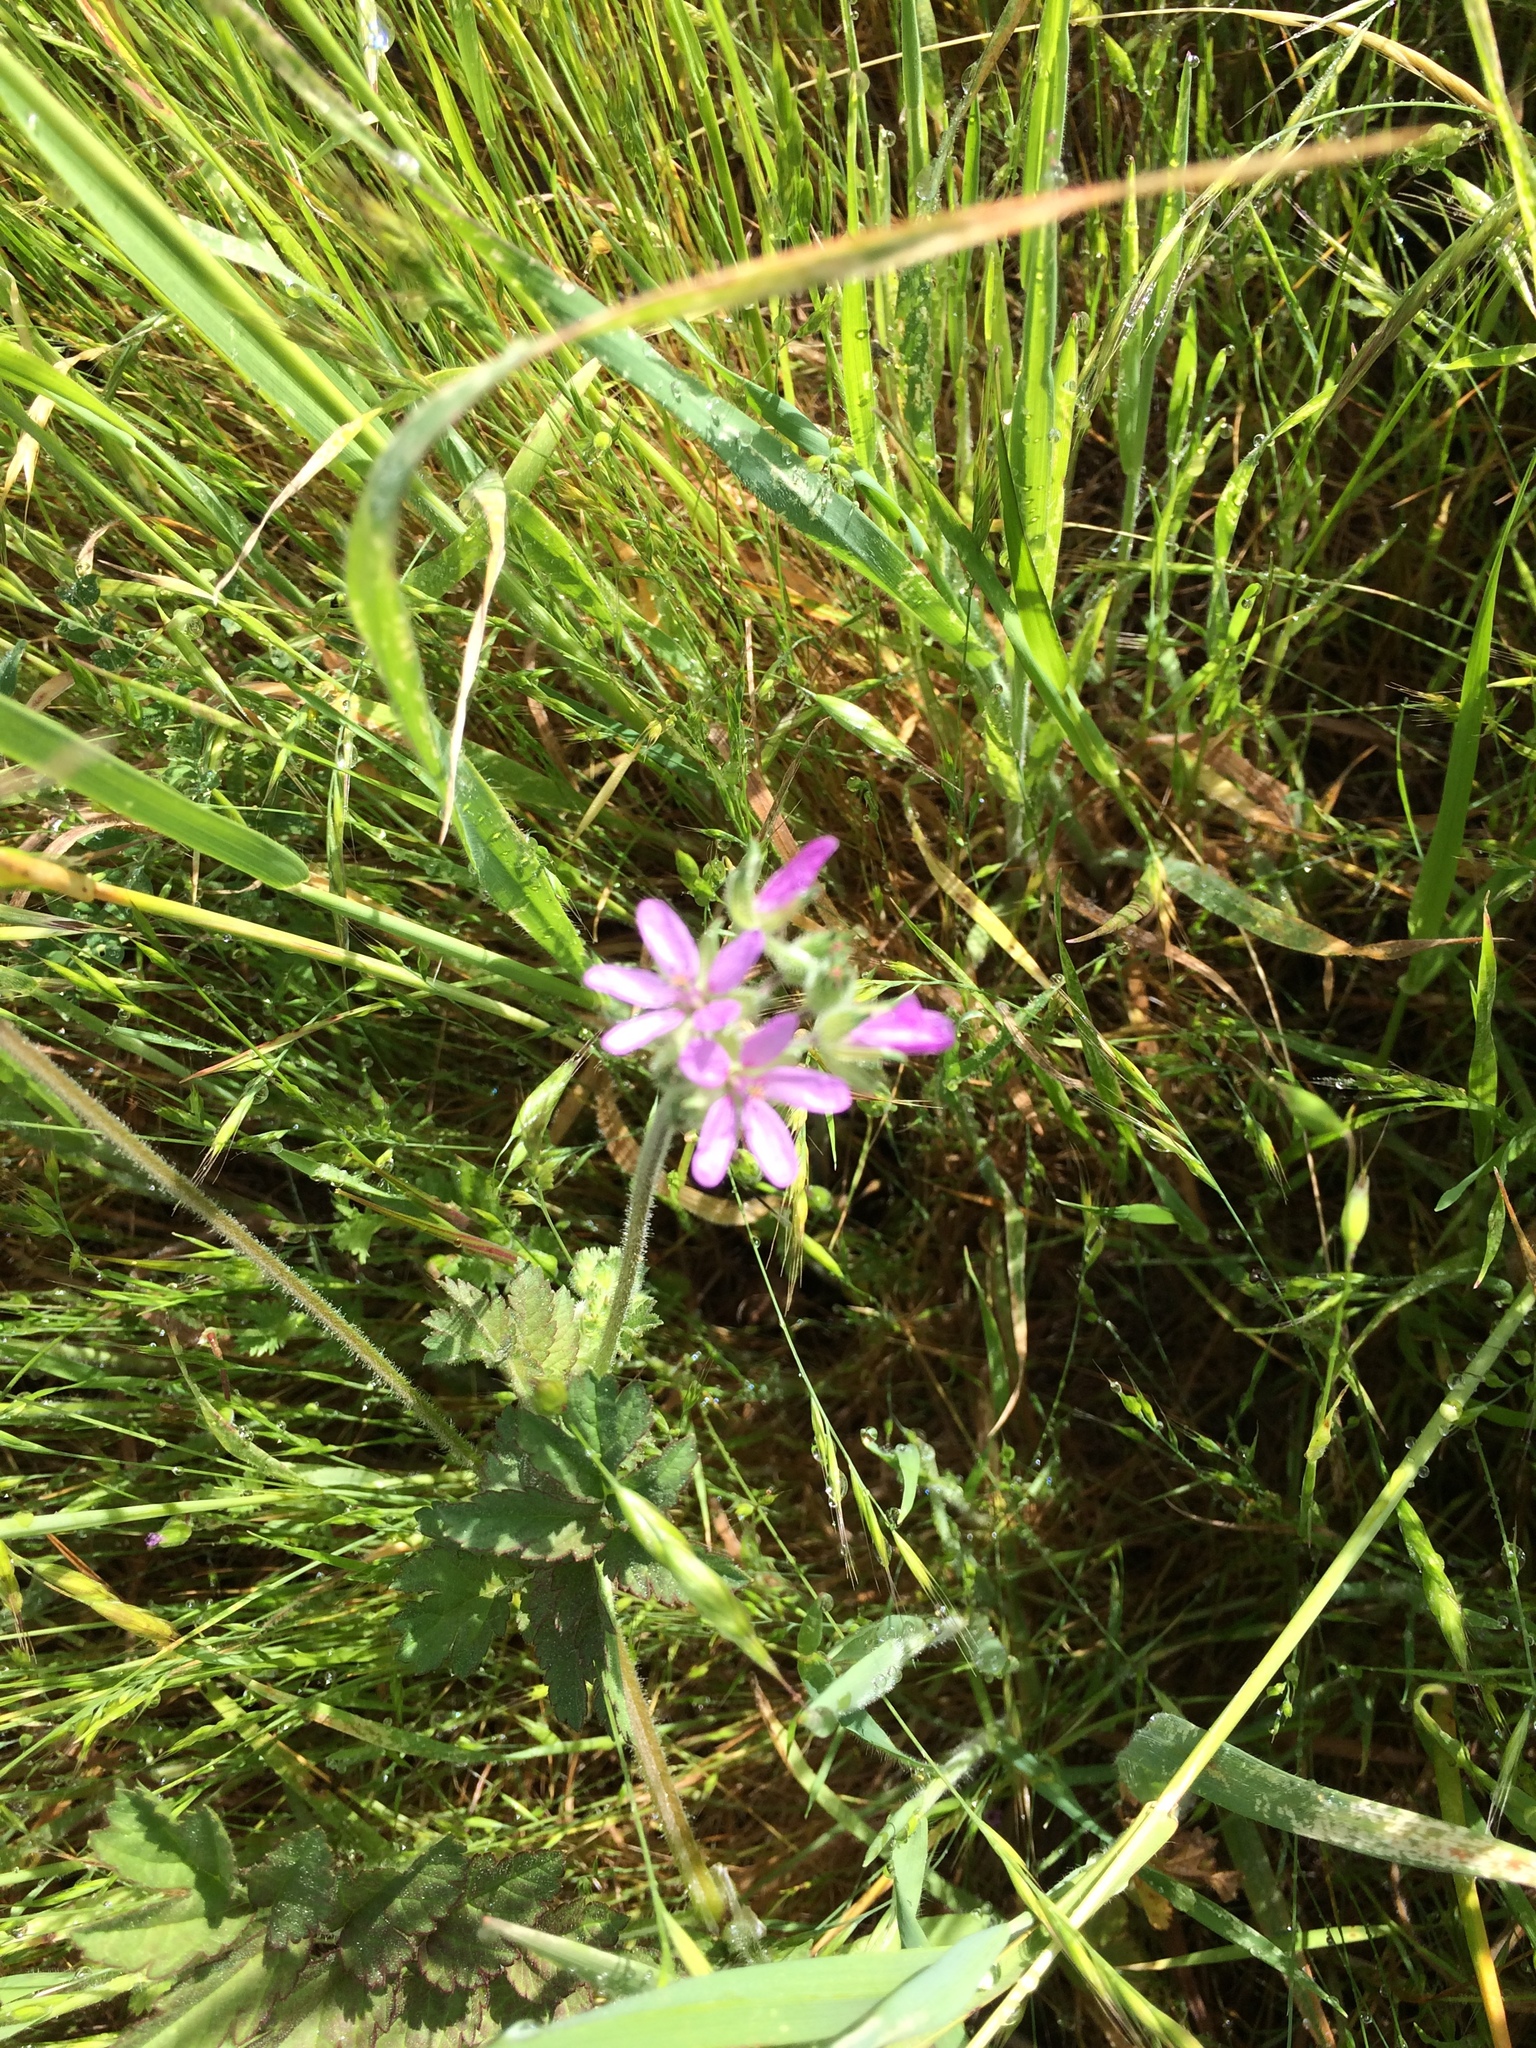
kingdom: Plantae
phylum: Tracheophyta
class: Magnoliopsida
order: Geraniales
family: Geraniaceae
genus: Erodium
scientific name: Erodium moschatum
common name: Musk stork's-bill
